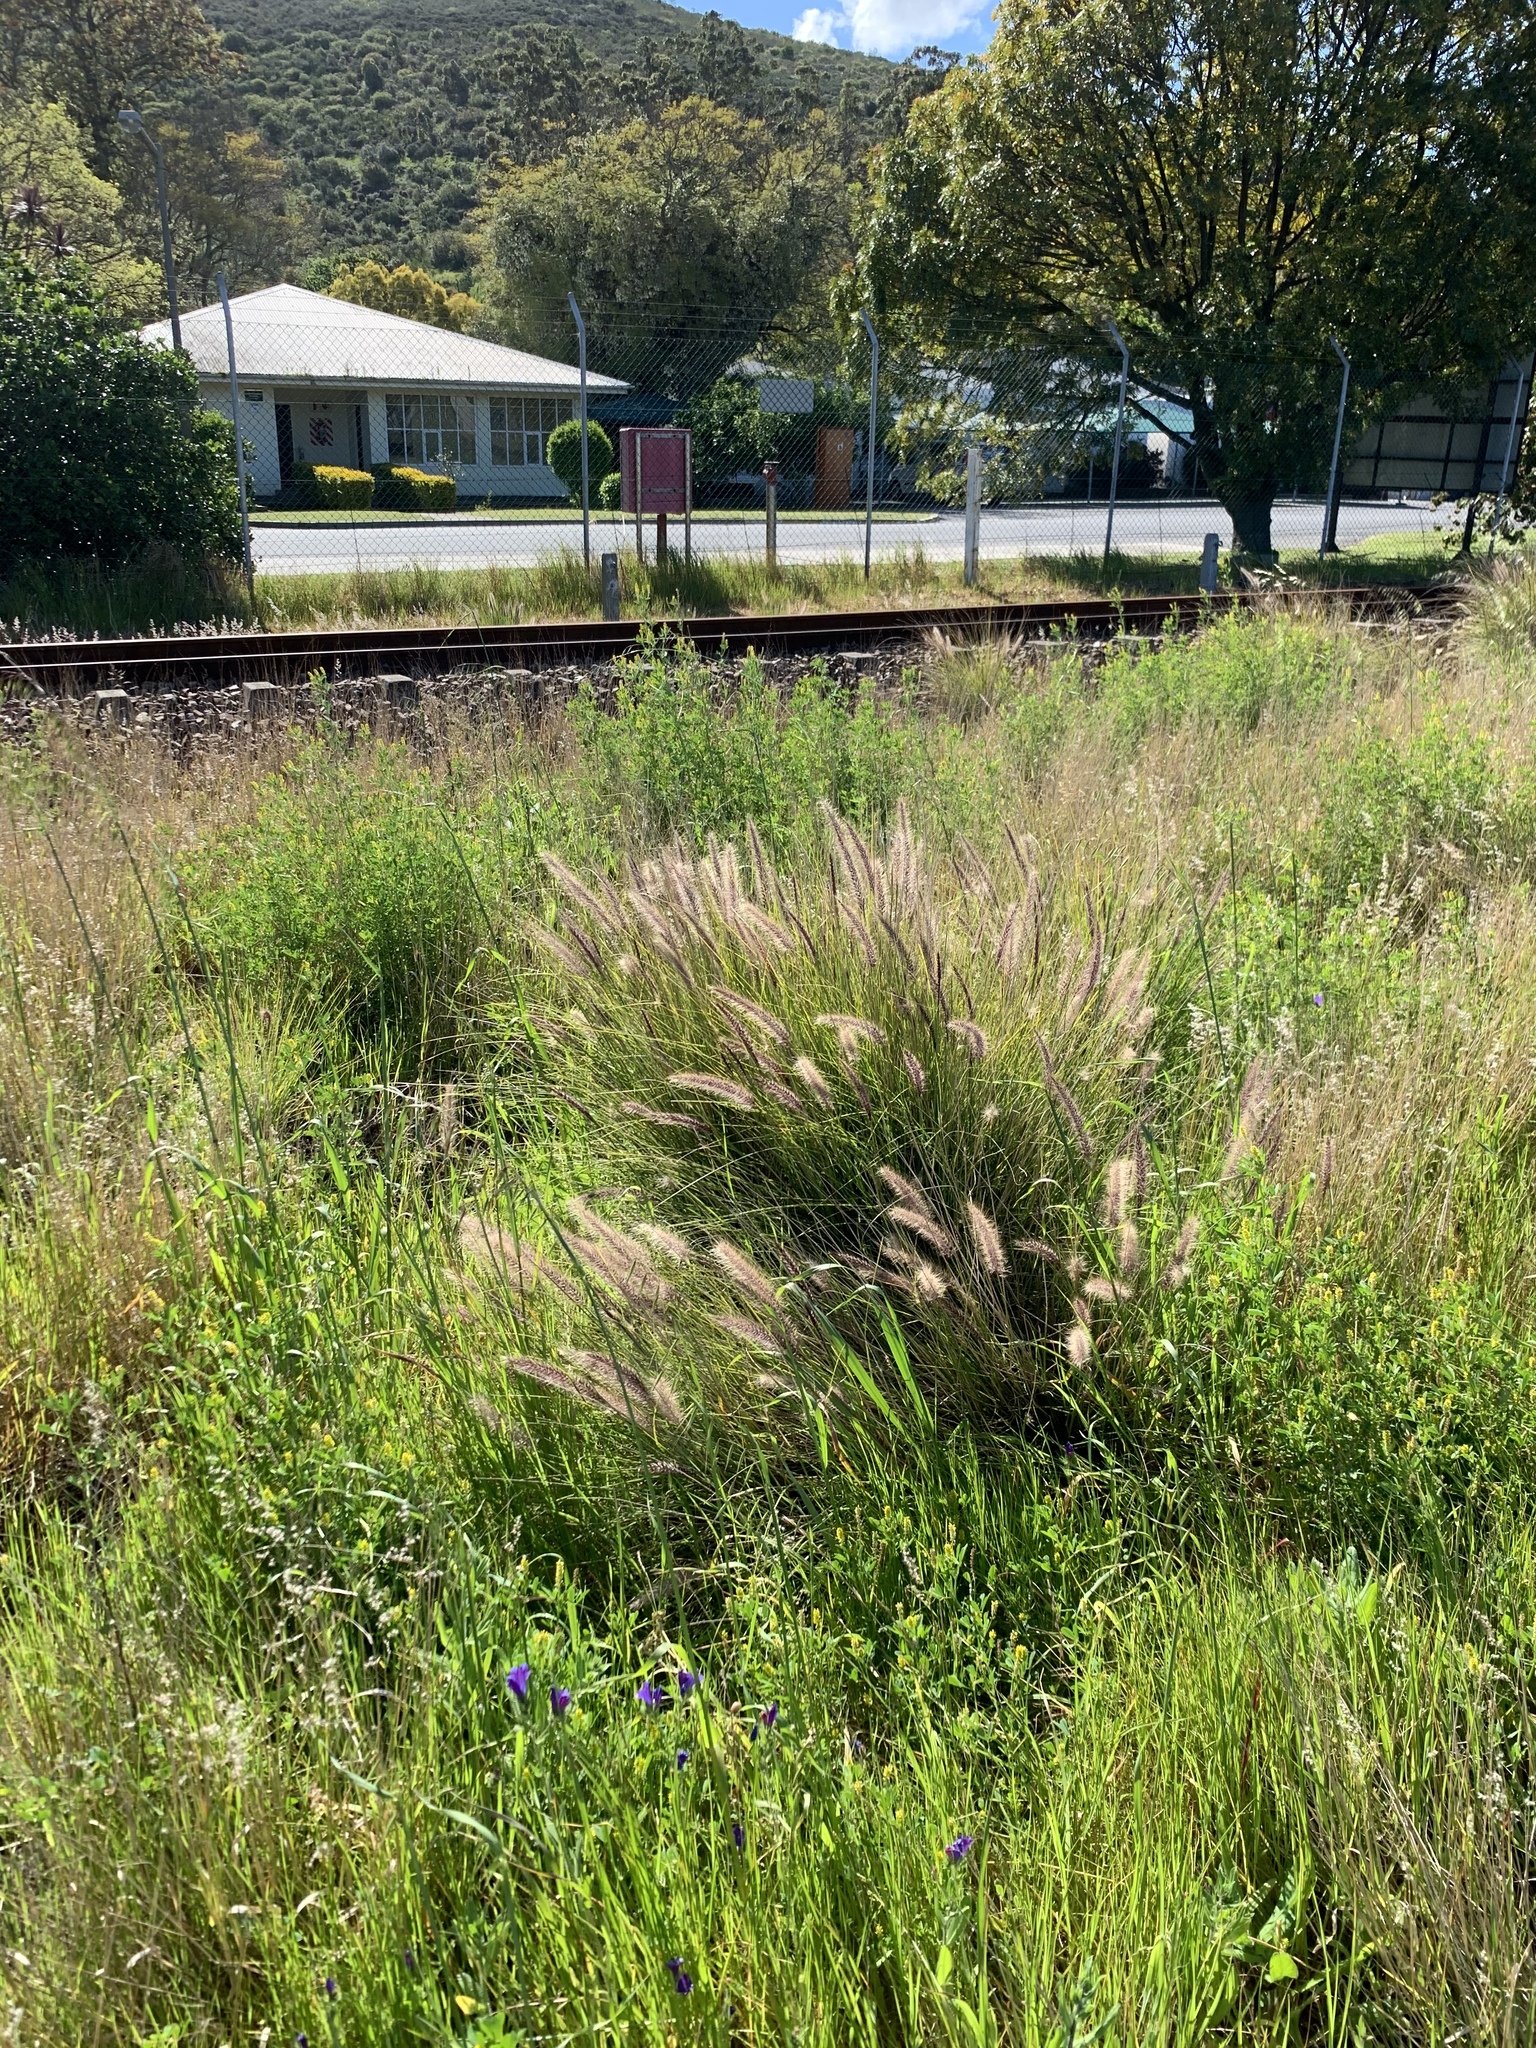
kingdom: Plantae
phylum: Tracheophyta
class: Liliopsida
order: Poales
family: Poaceae
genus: Cenchrus
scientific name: Cenchrus setaceus
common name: Crimson fountaingrass
